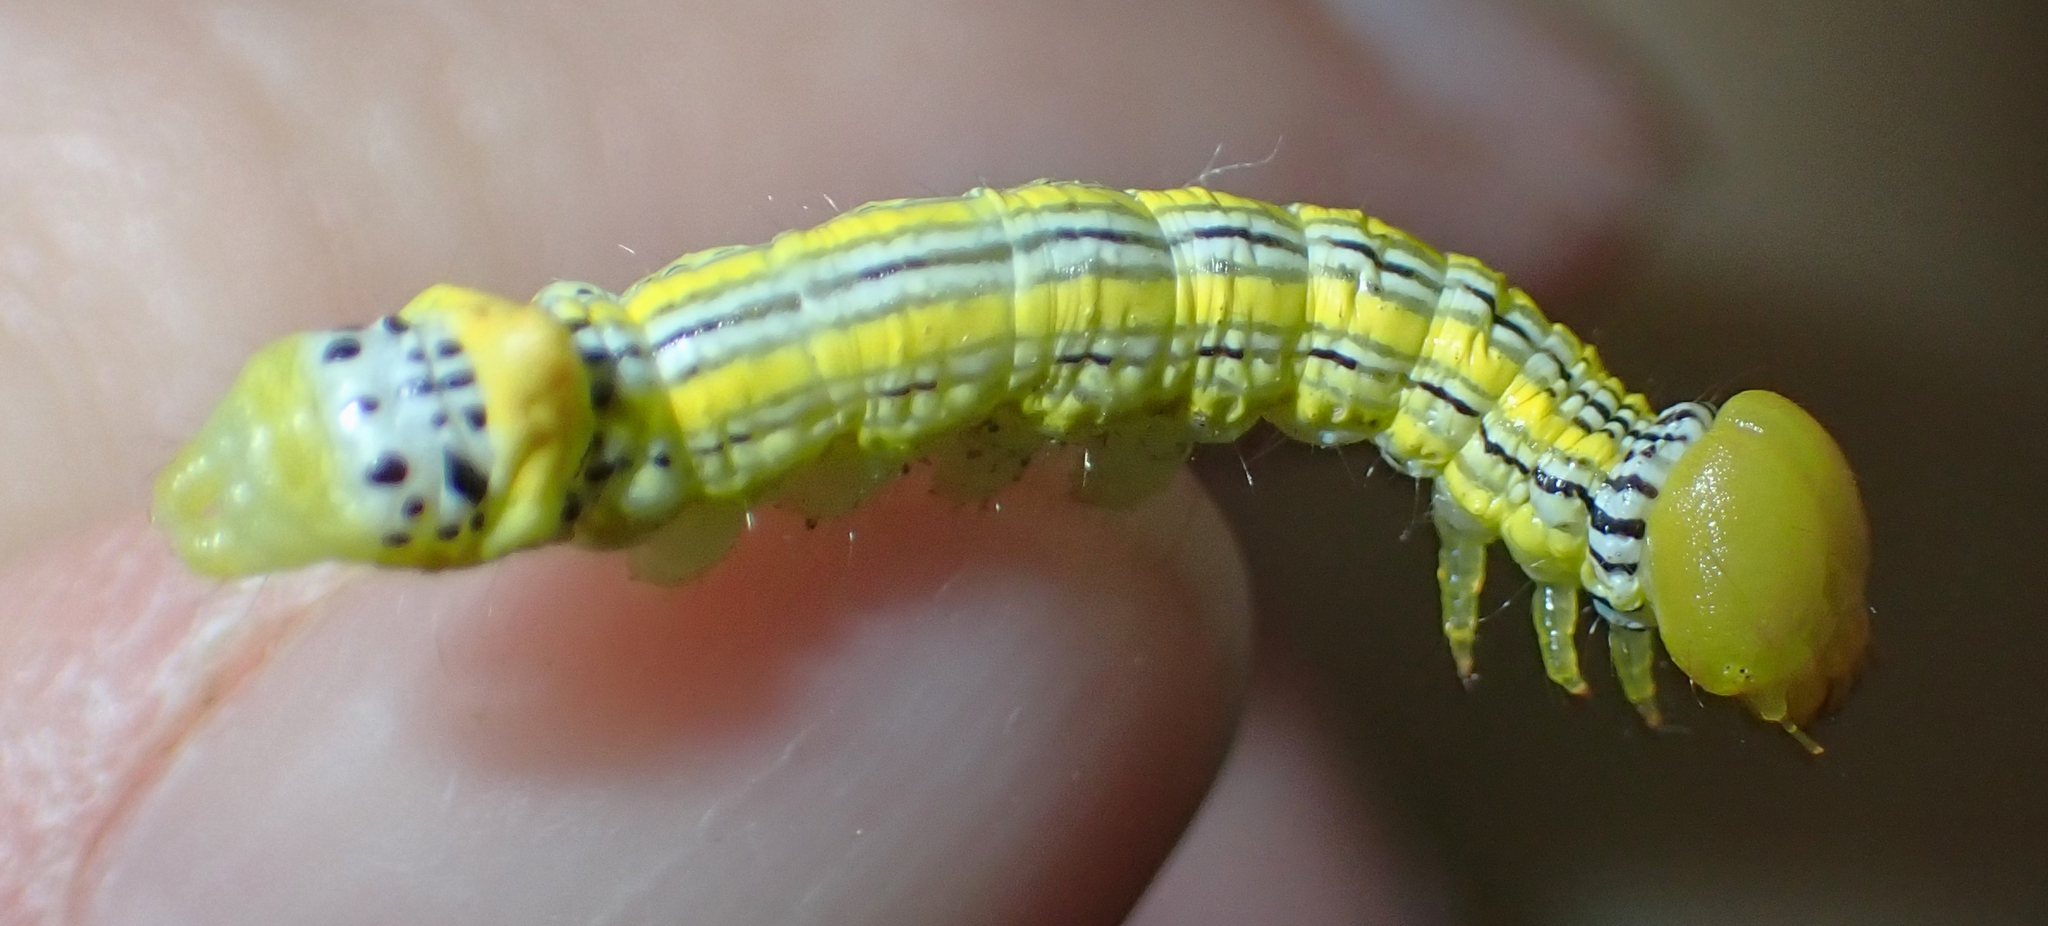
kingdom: Animalia
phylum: Arthropoda
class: Insecta
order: Lepidoptera
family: Notodontidae
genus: Symmerista
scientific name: Symmerista leucitys
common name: Orange-humped mapleworm
